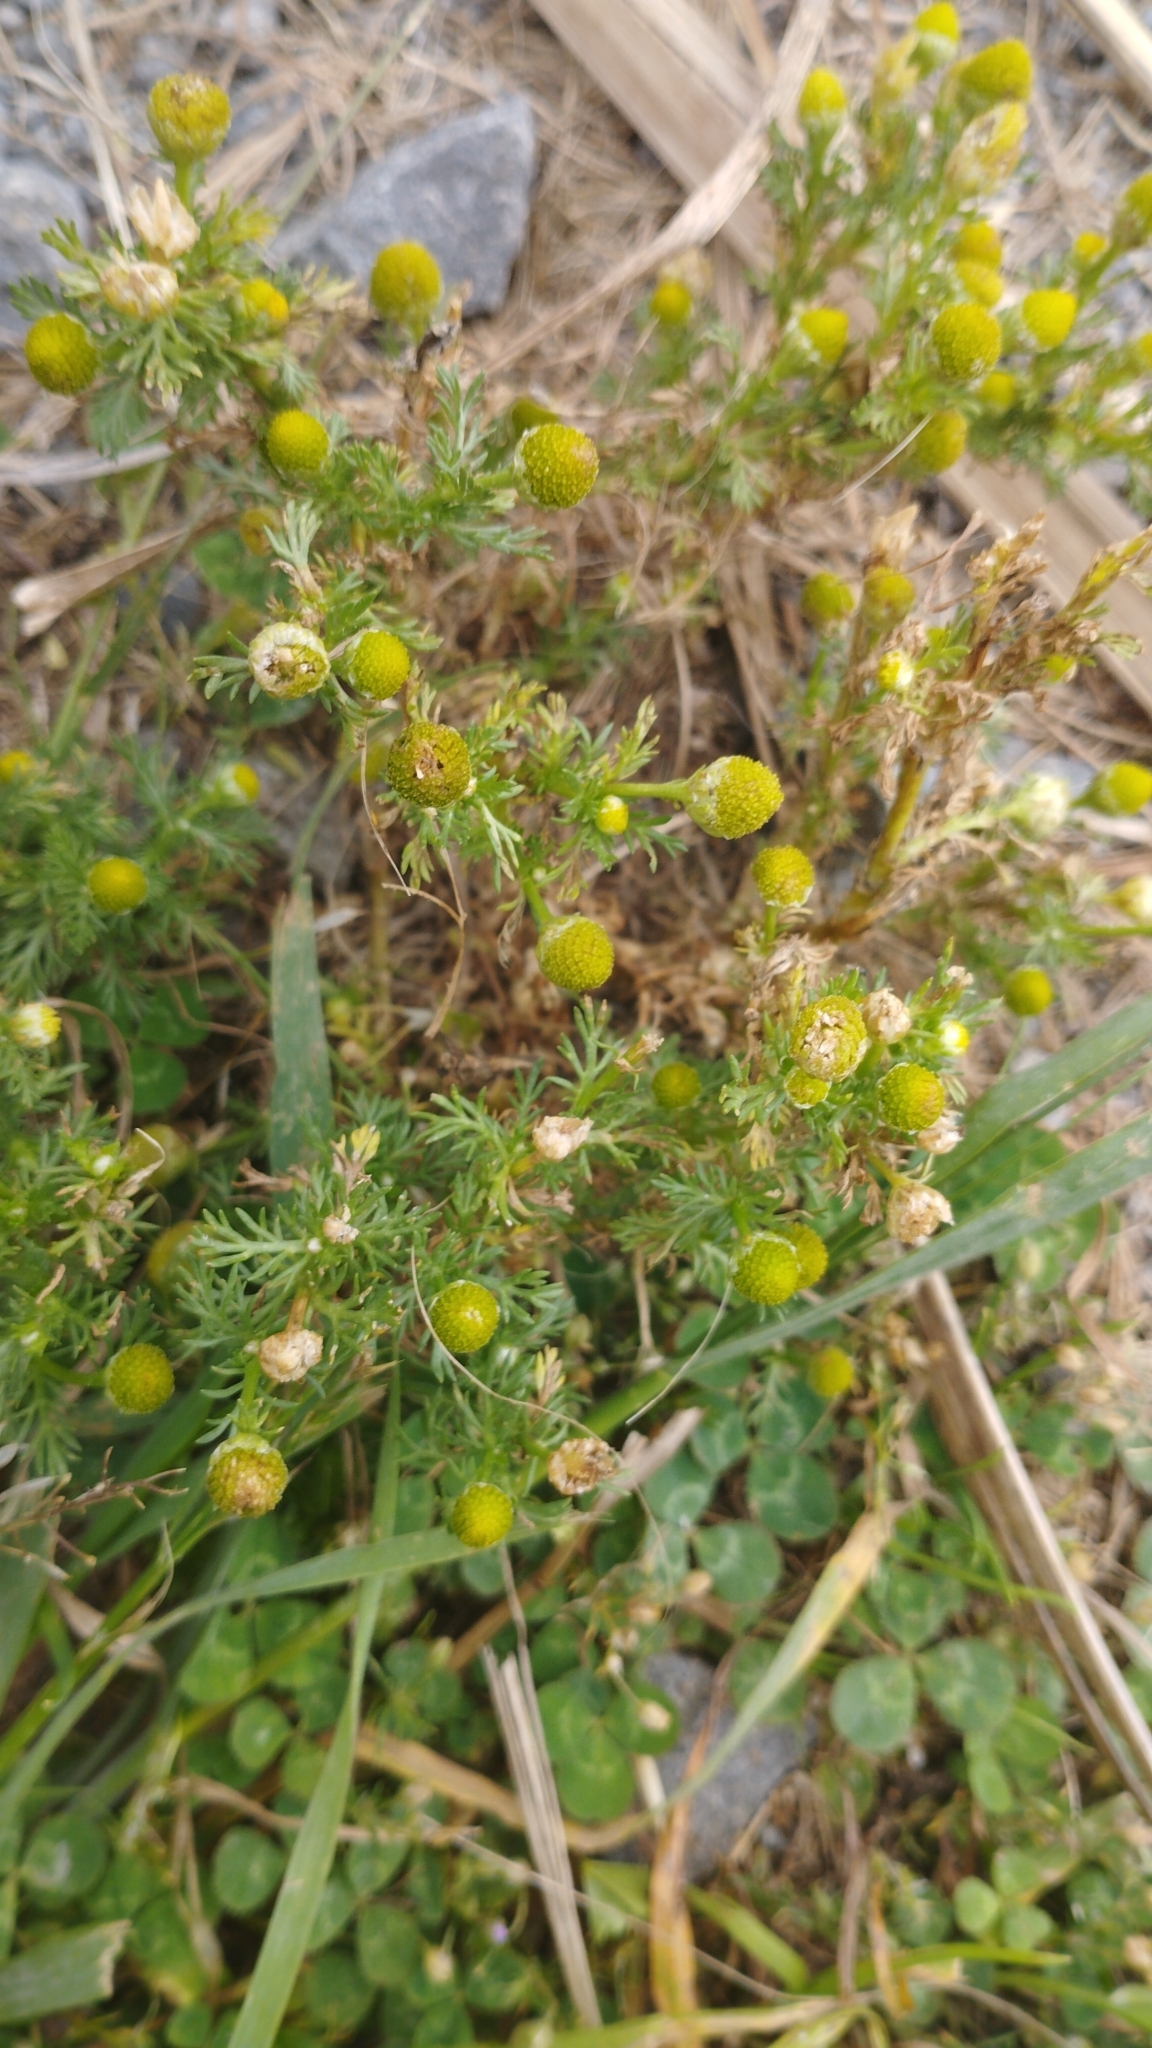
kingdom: Plantae
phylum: Tracheophyta
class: Magnoliopsida
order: Asterales
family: Asteraceae
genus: Matricaria
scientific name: Matricaria discoidea
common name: Disc mayweed
